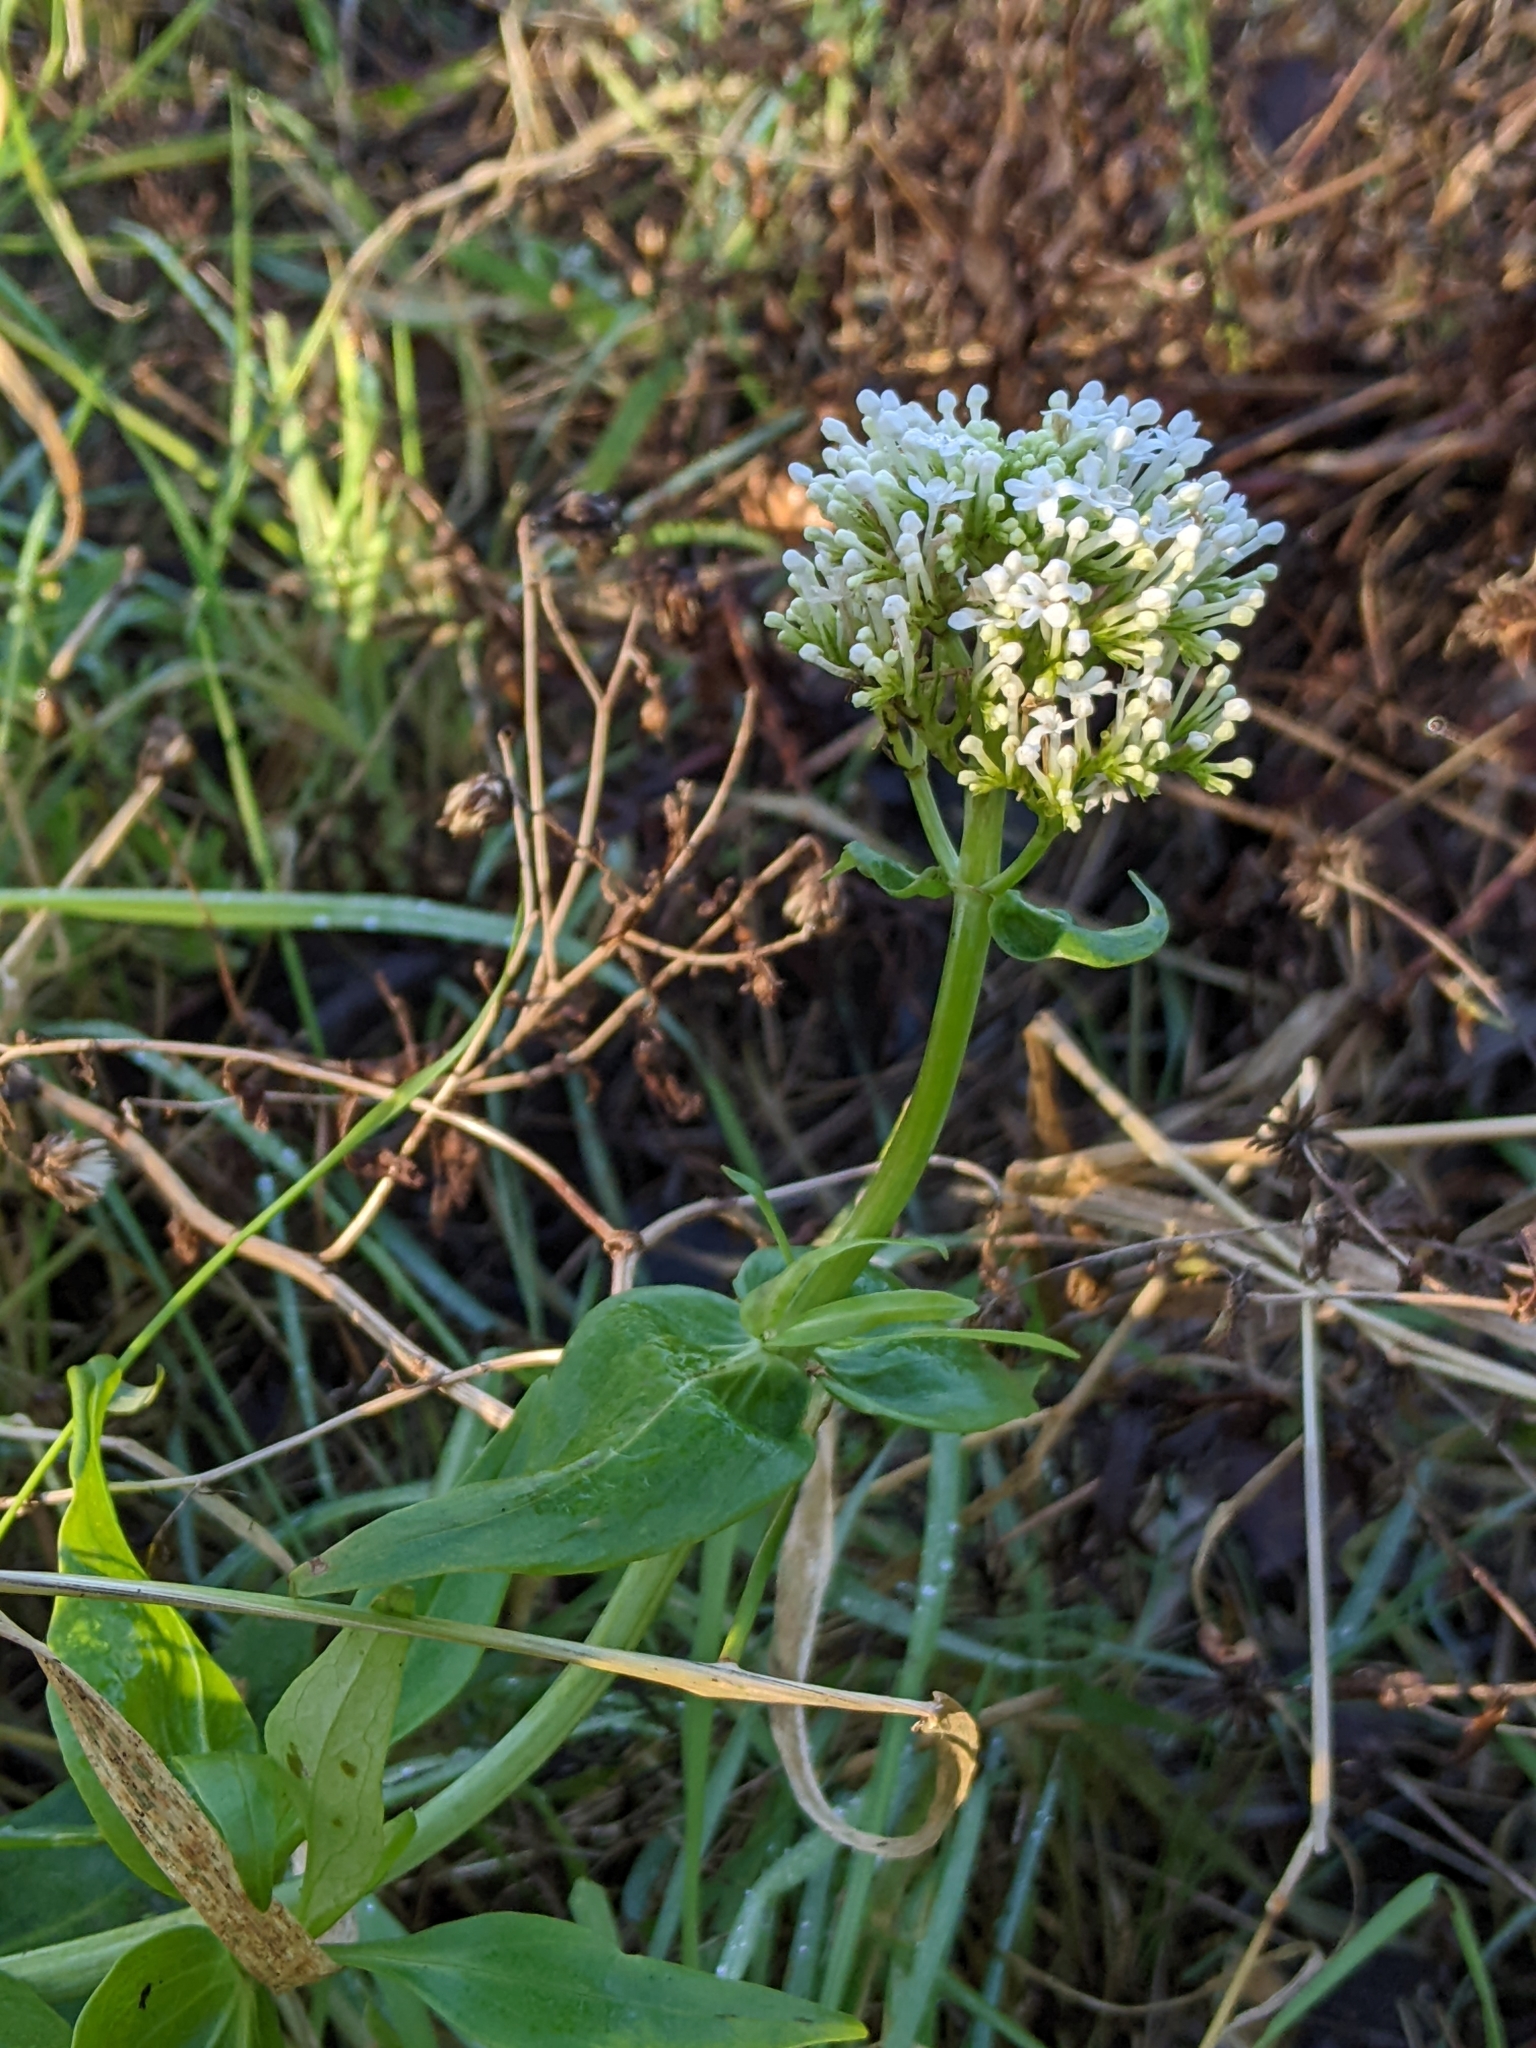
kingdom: Plantae
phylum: Tracheophyta
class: Magnoliopsida
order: Dipsacales
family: Caprifoliaceae
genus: Centranthus
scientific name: Centranthus ruber
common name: Red valerian
